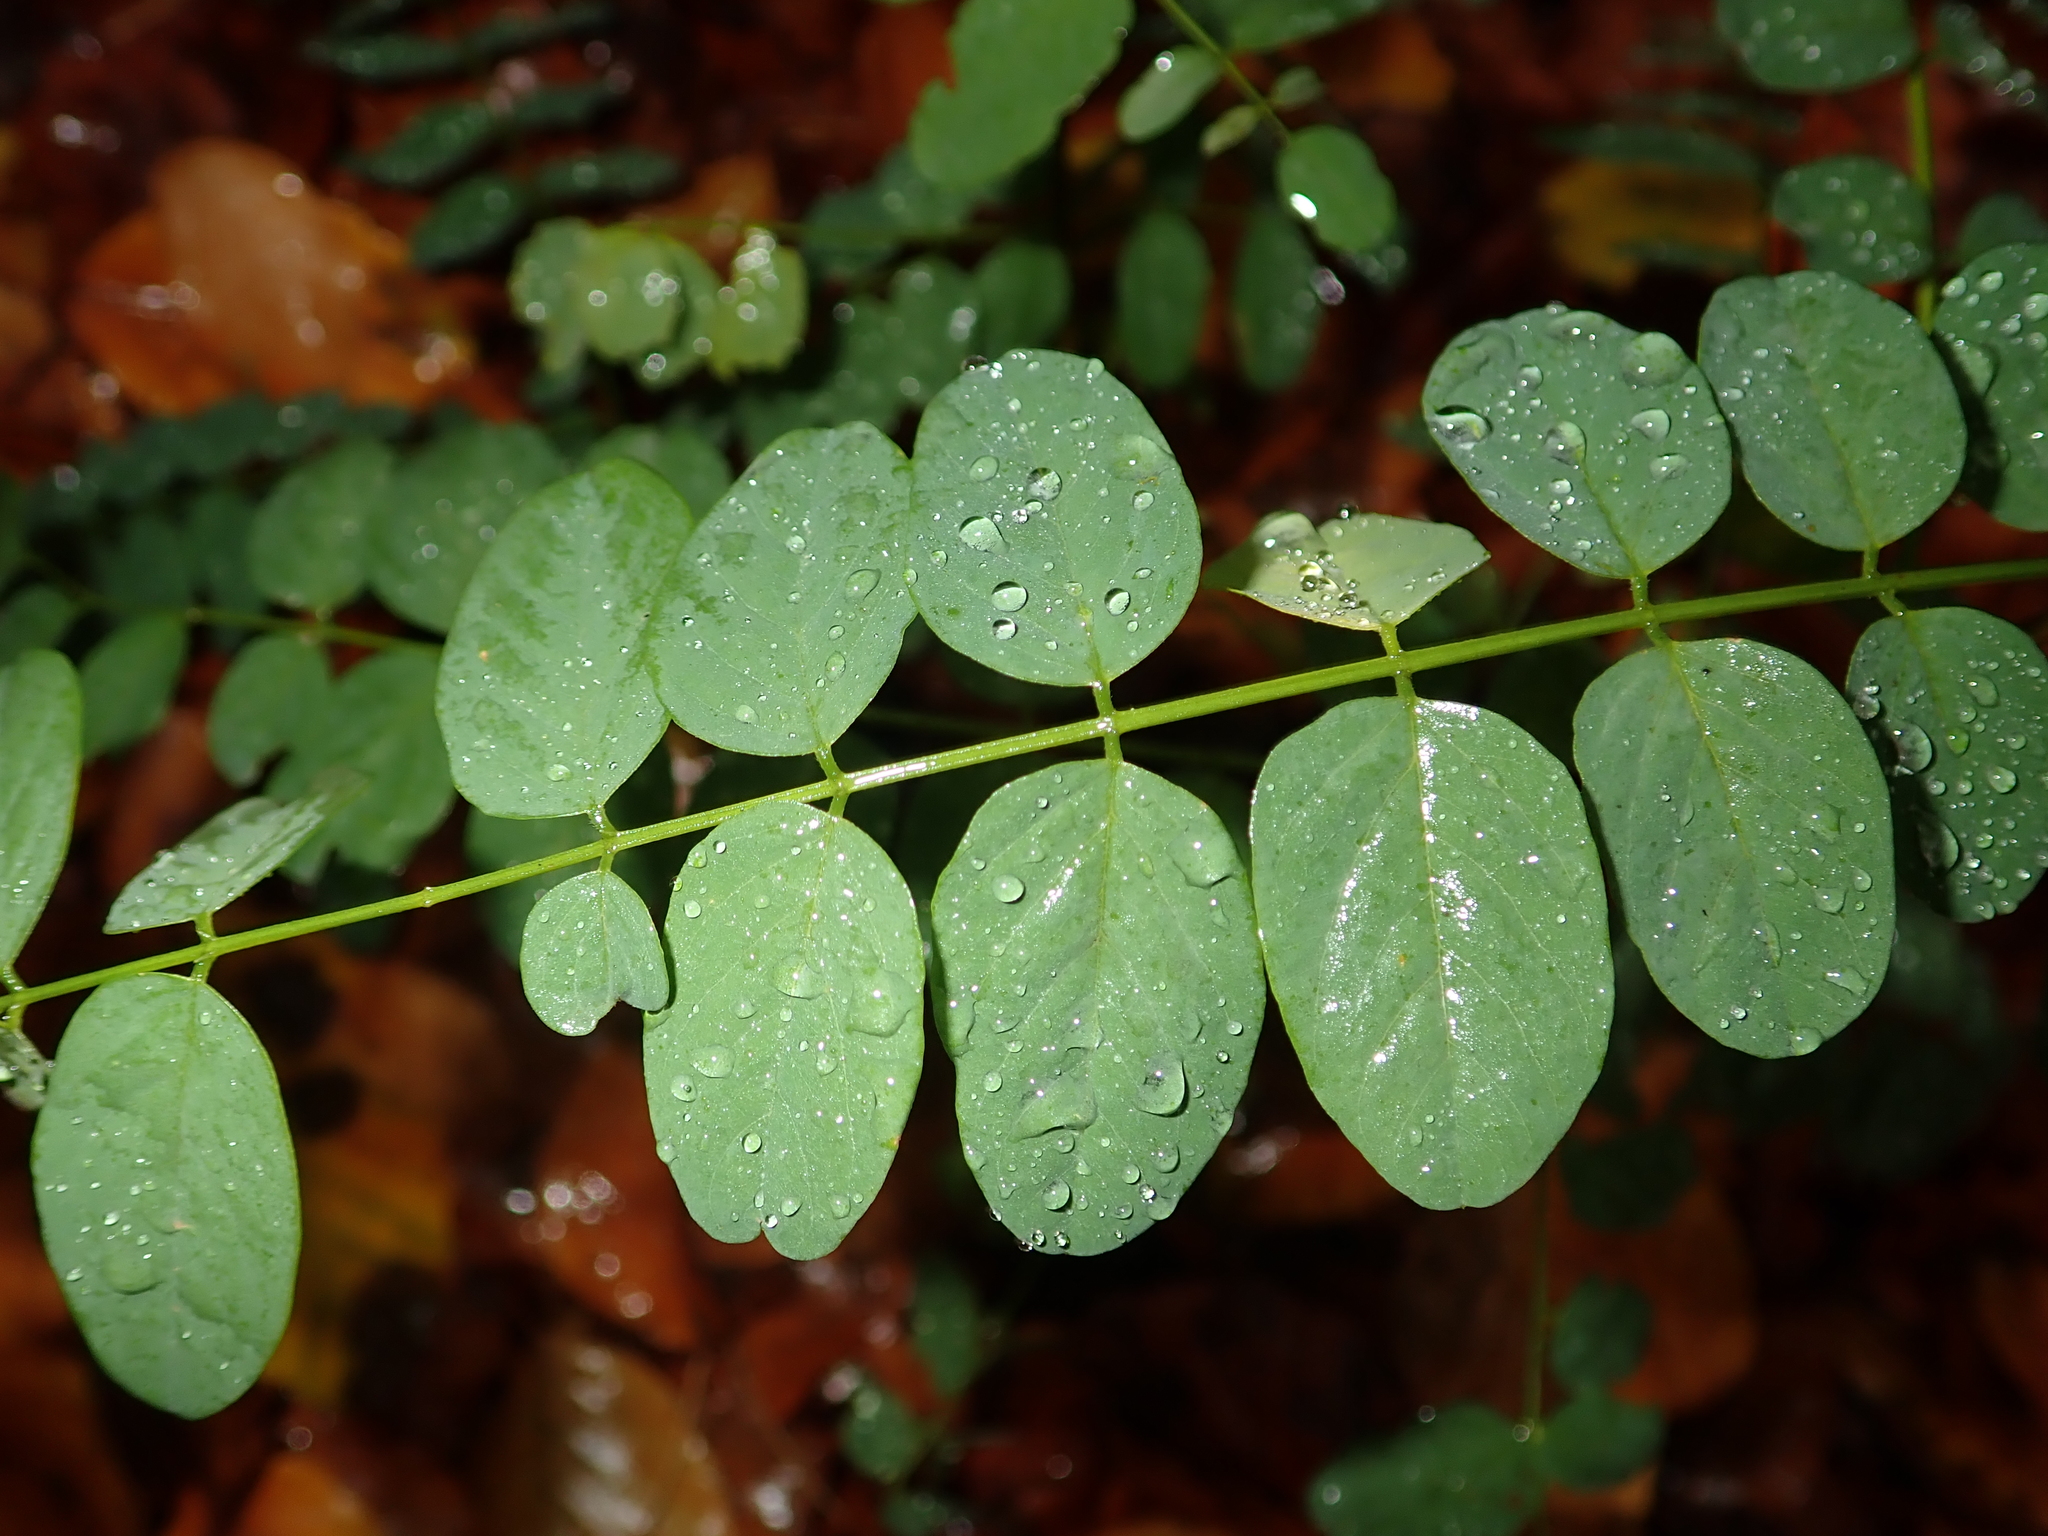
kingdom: Plantae
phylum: Tracheophyta
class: Magnoliopsida
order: Fabales
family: Fabaceae
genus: Robinia
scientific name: Robinia pseudoacacia
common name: Black locust
